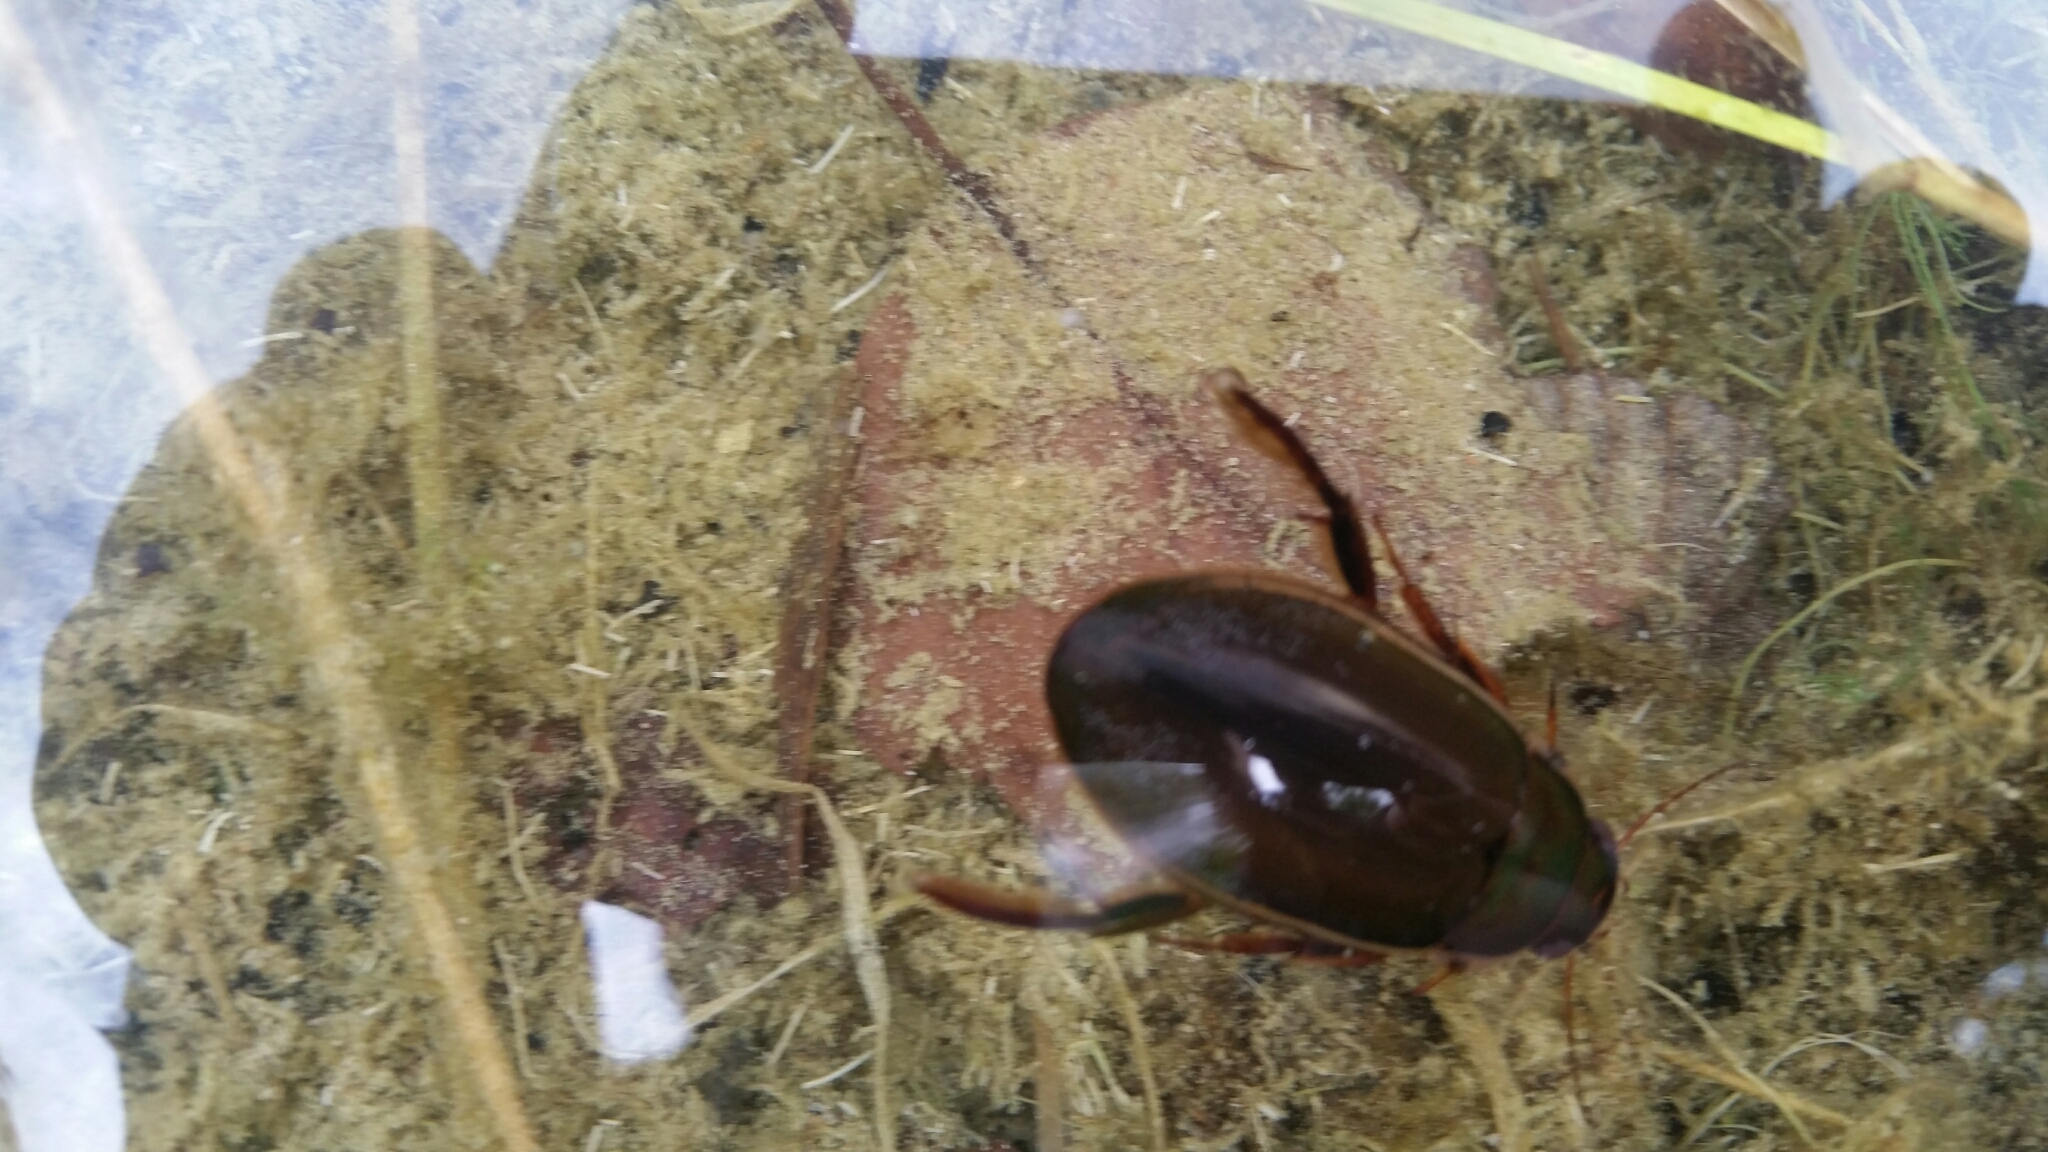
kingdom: Animalia
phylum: Arthropoda
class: Insecta
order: Coleoptera
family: Dytiscidae
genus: Dytiscus
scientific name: Dytiscus dimidiatus
